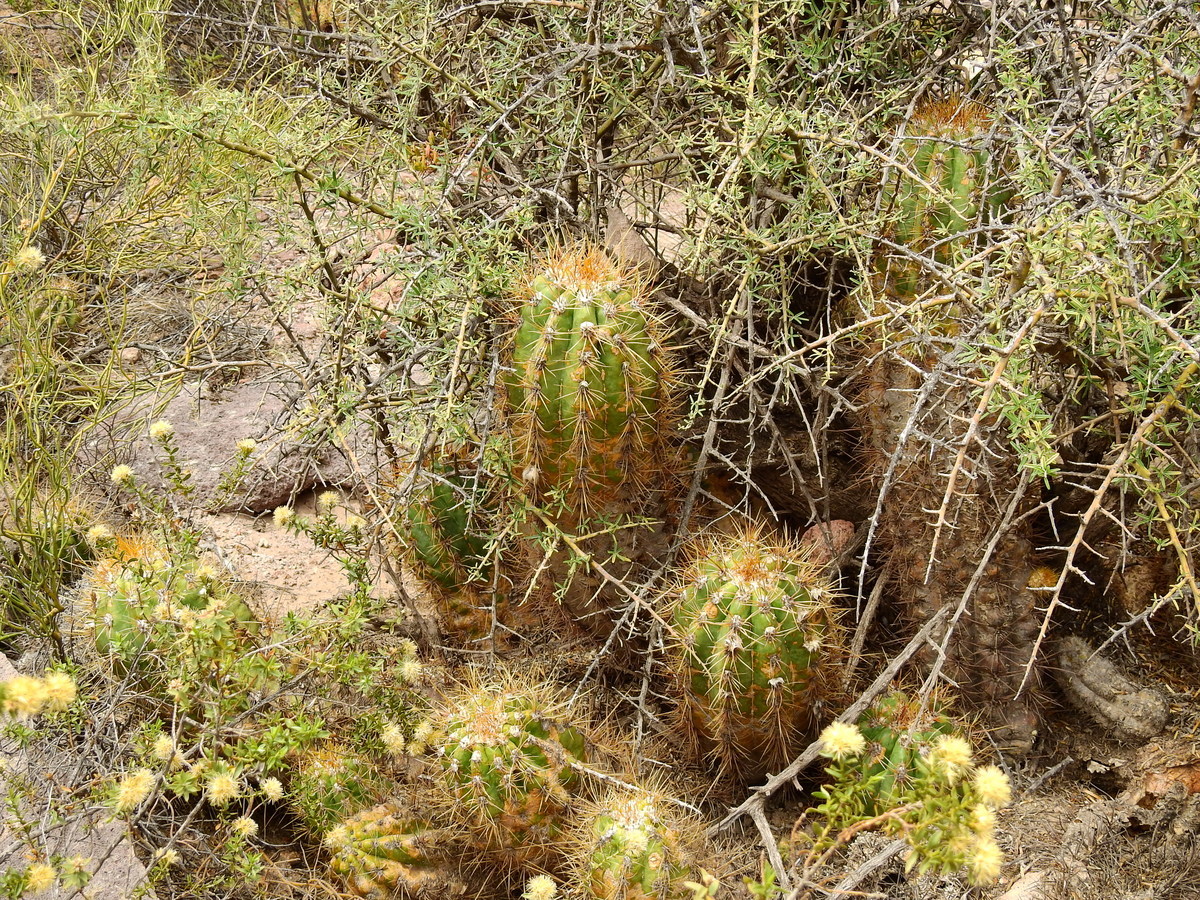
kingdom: Plantae
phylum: Tracheophyta
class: Magnoliopsida
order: Caryophyllales
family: Cactaceae
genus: Soehrensia
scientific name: Soehrensia candicans
